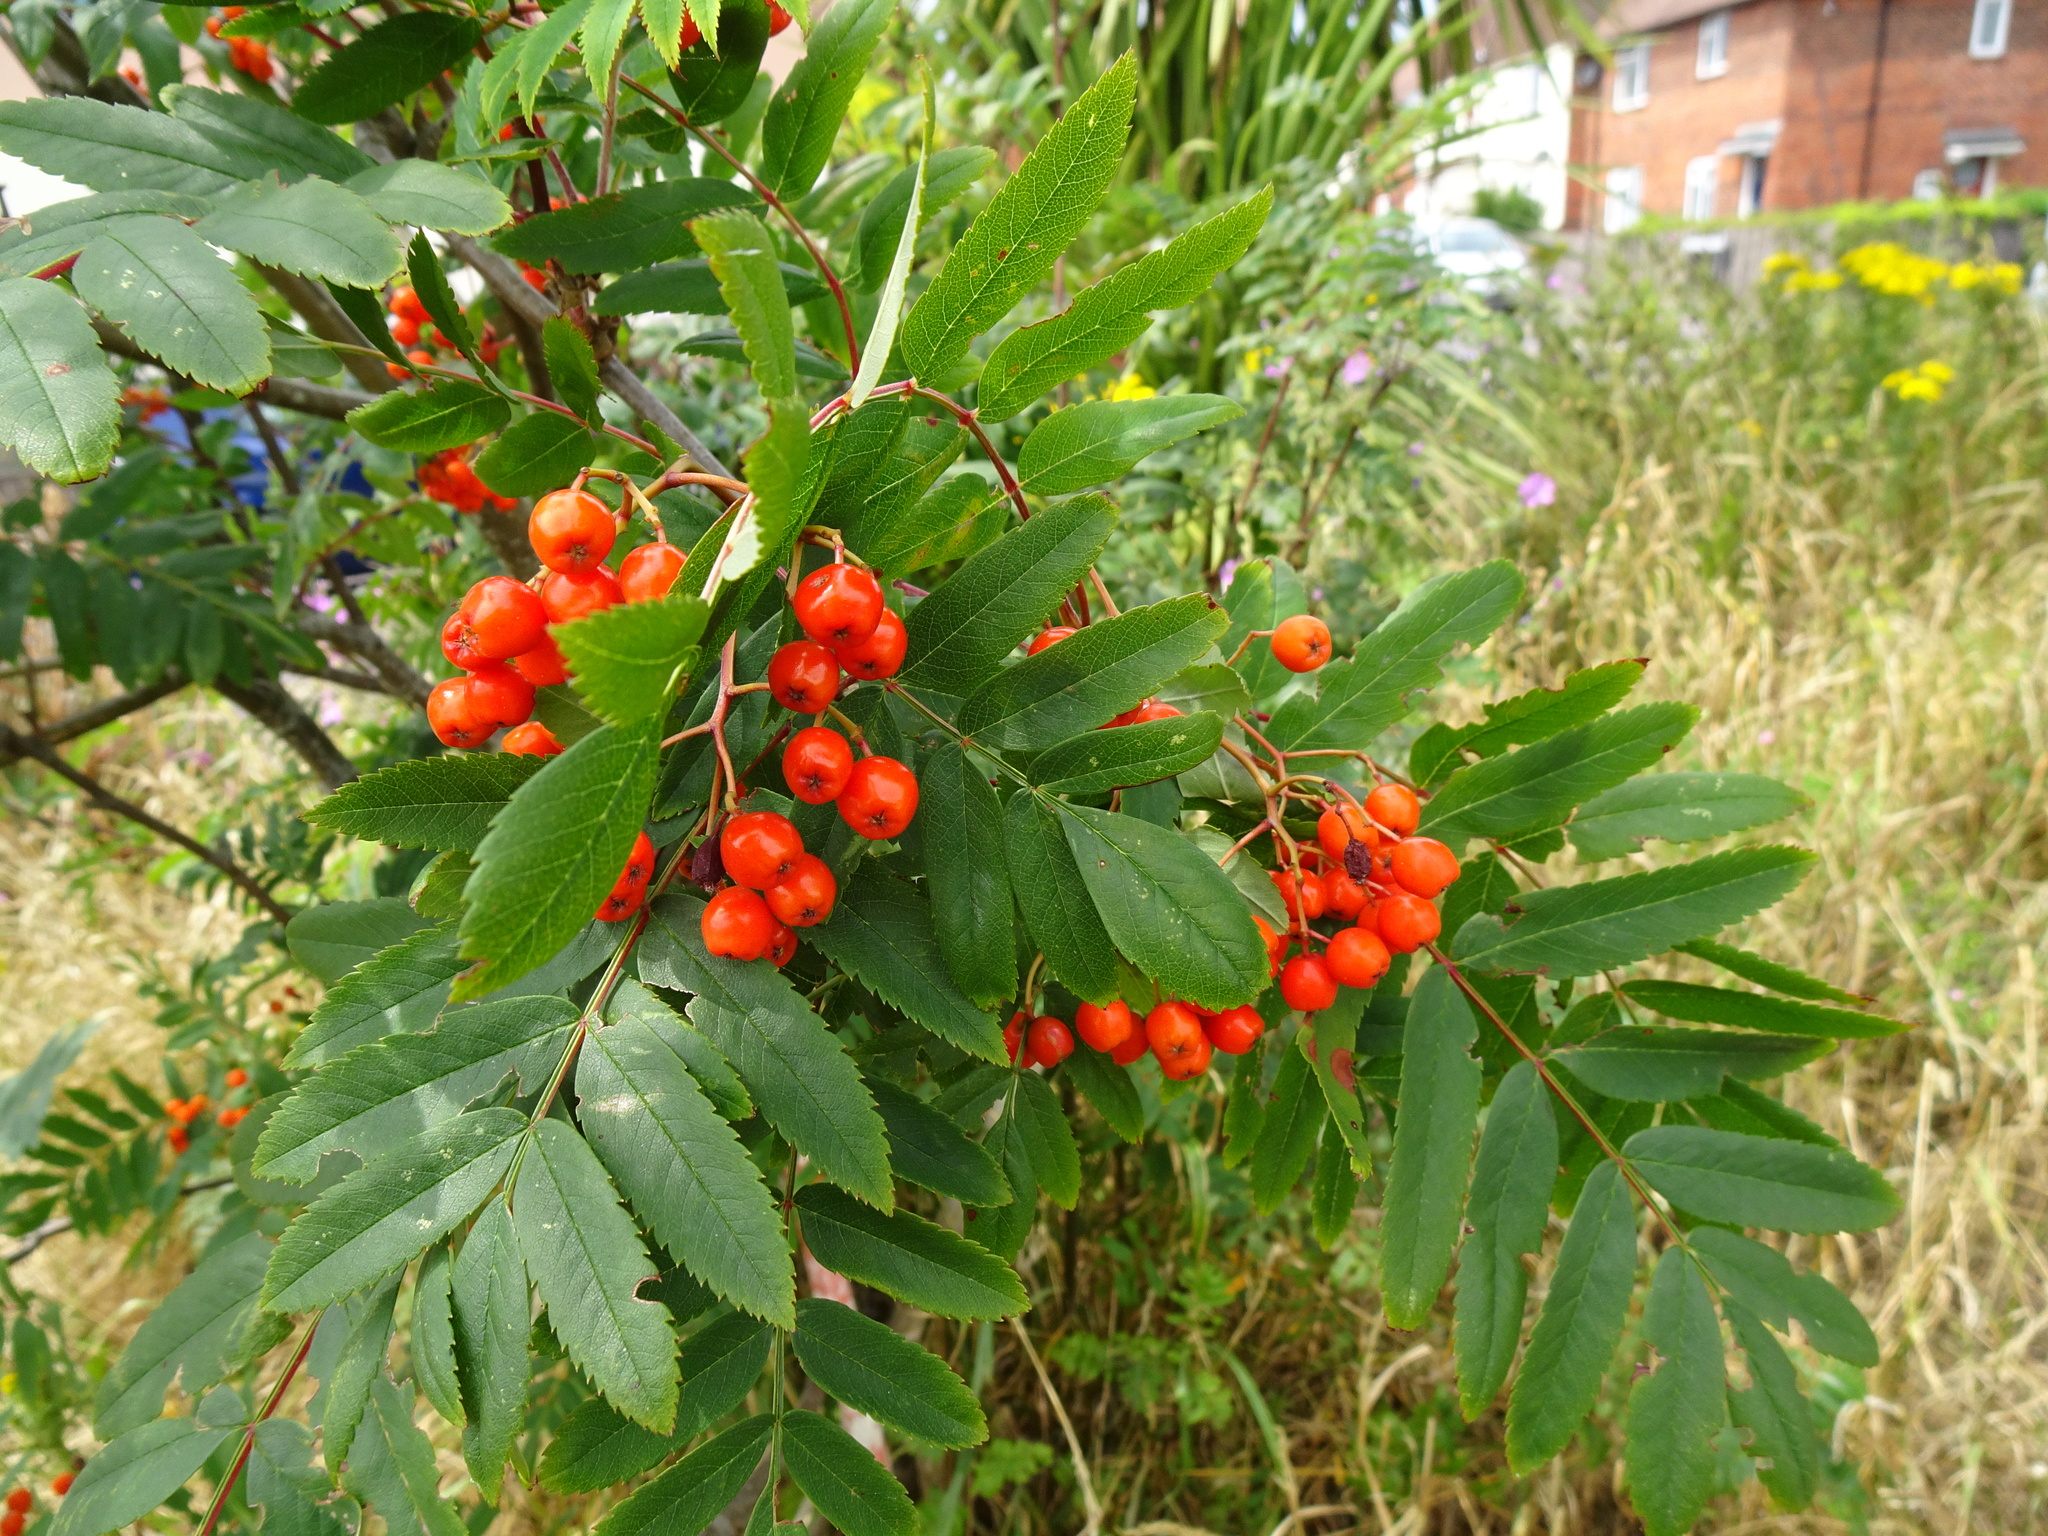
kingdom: Plantae
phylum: Tracheophyta
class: Magnoliopsida
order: Rosales
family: Rosaceae
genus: Sorbus
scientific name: Sorbus aucuparia
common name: Rowan
